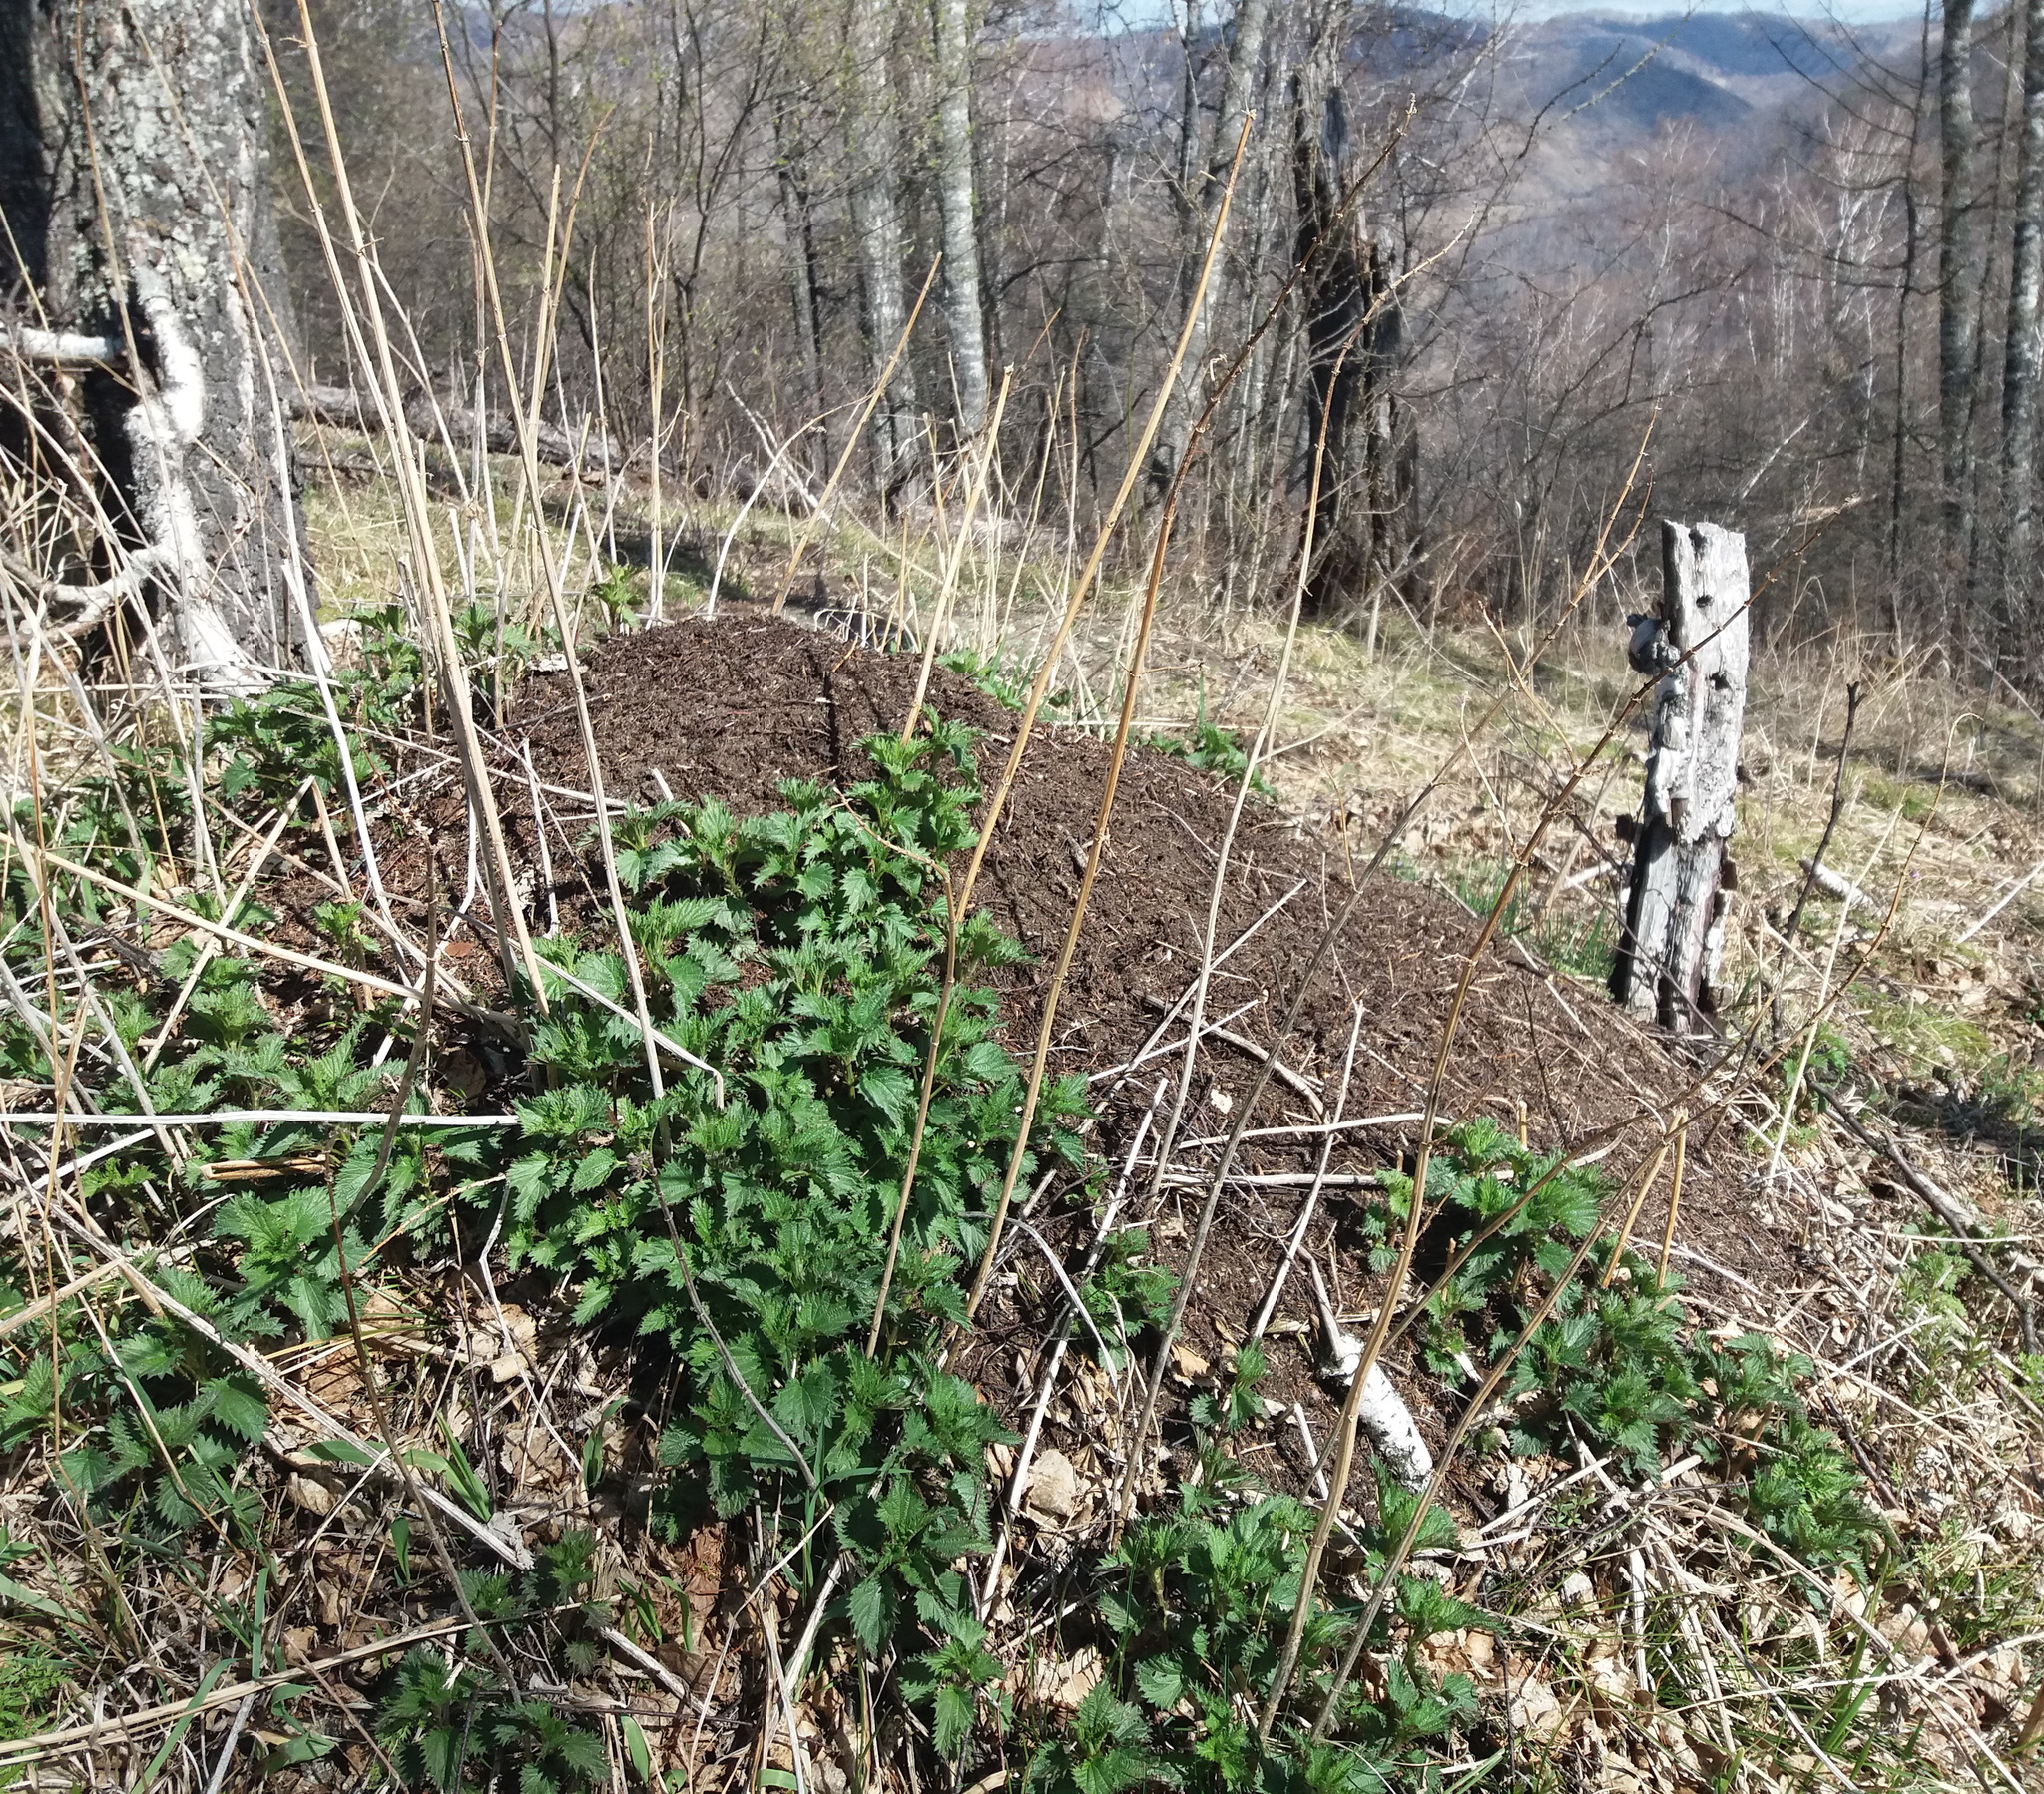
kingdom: Plantae
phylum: Tracheophyta
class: Magnoliopsida
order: Rosales
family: Urticaceae
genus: Urtica
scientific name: Urtica dioica
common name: Common nettle
